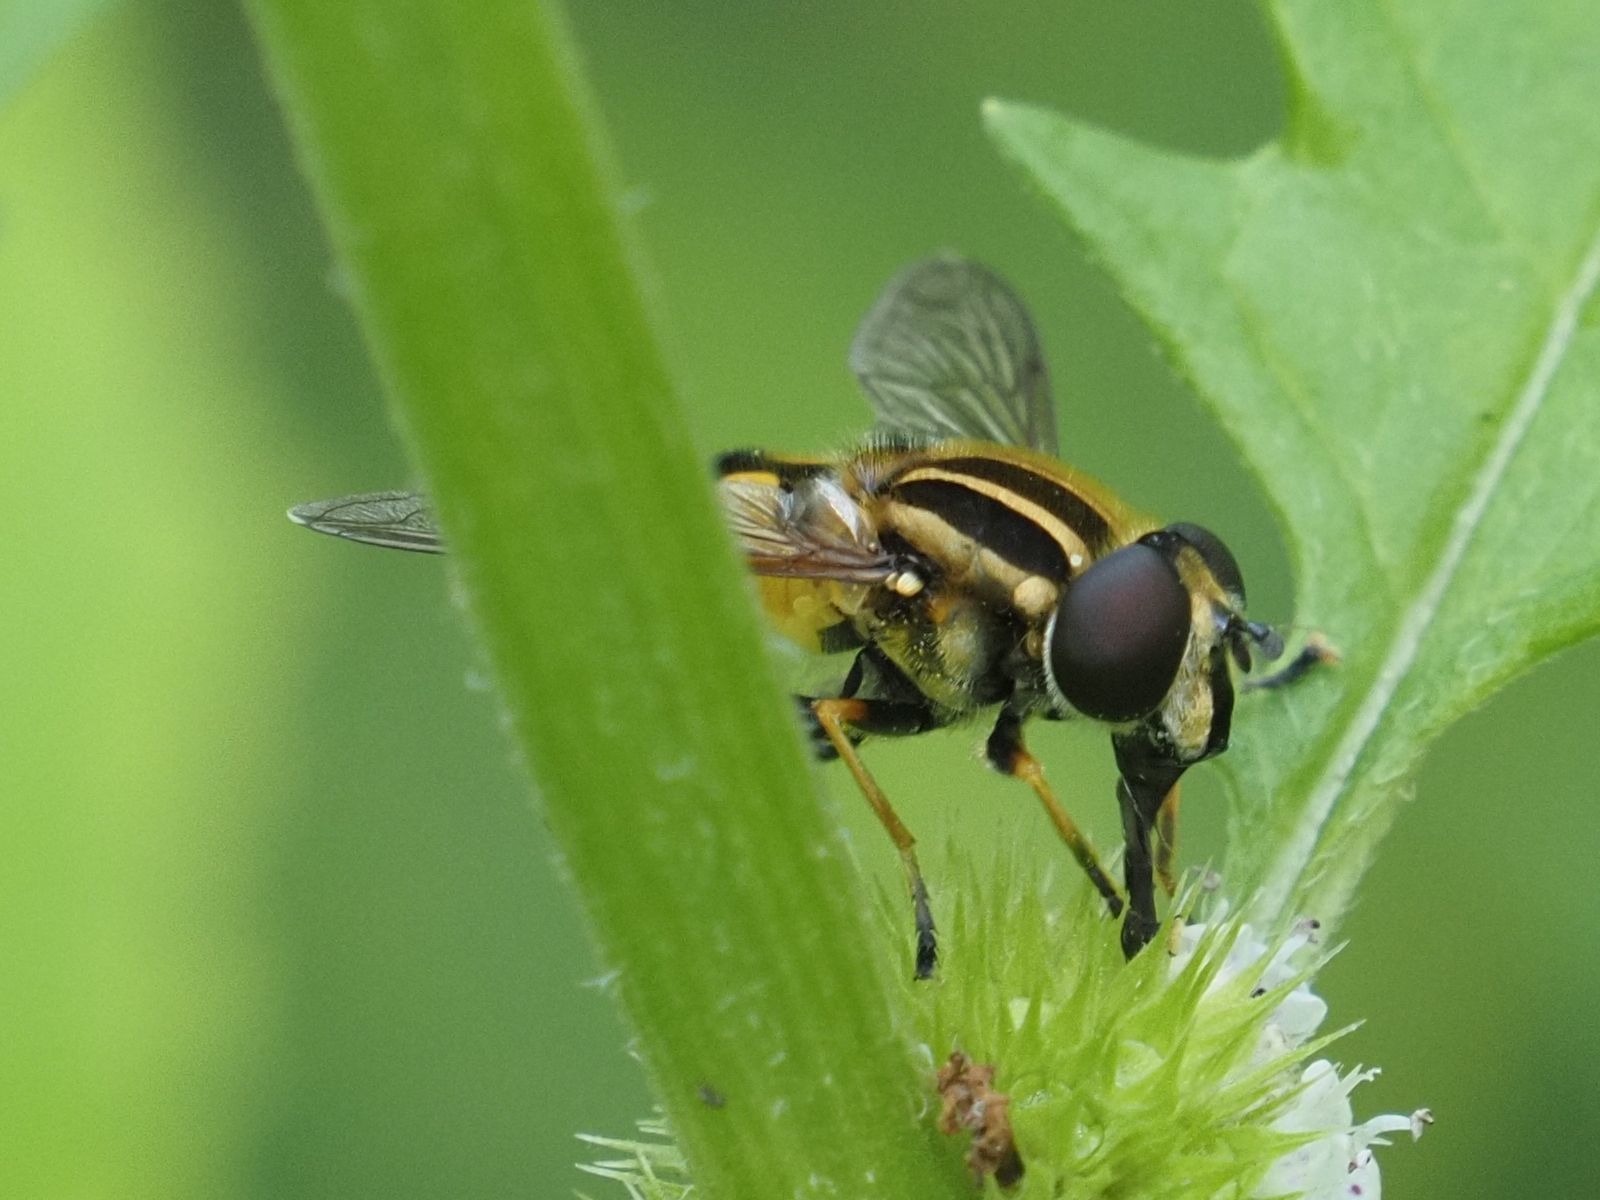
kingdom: Animalia
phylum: Arthropoda
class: Insecta
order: Diptera
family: Syrphidae
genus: Helophilus
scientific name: Helophilus pendulus
